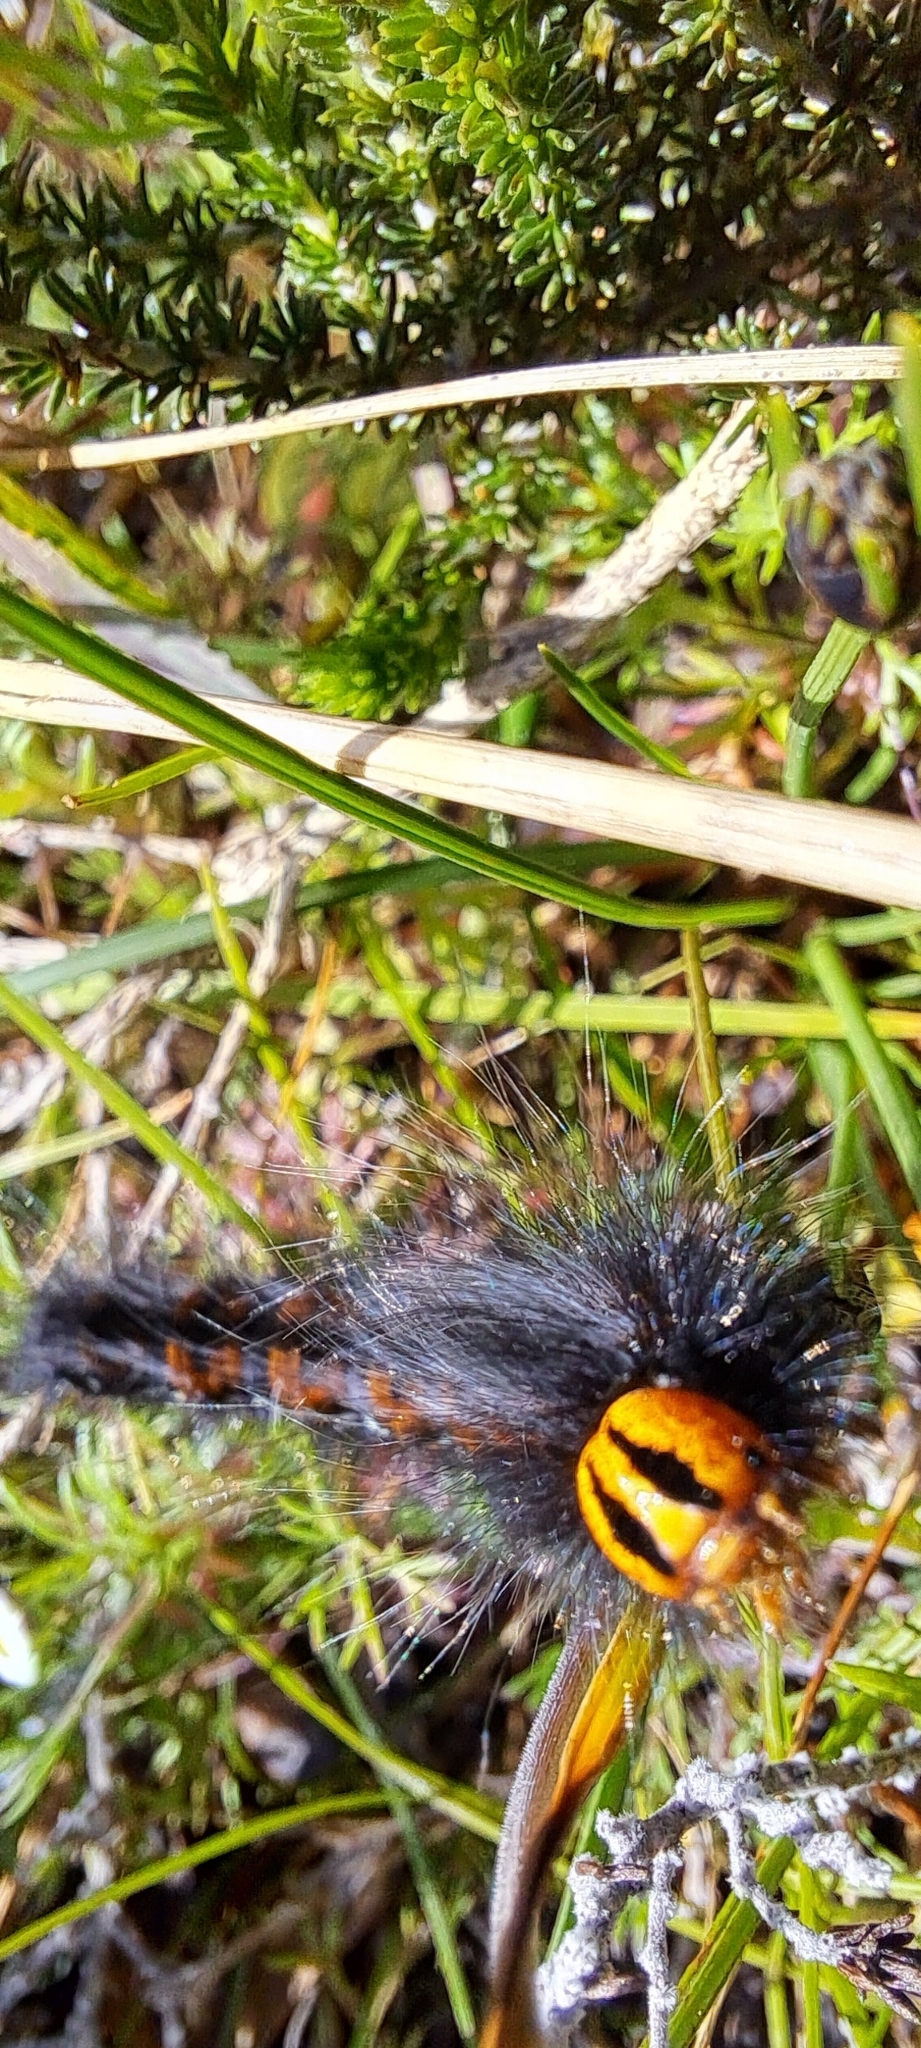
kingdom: Animalia
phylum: Arthropoda
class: Insecta
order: Lepidoptera
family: Lasiocampidae
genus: Mesocelis
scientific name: Mesocelis monticola
